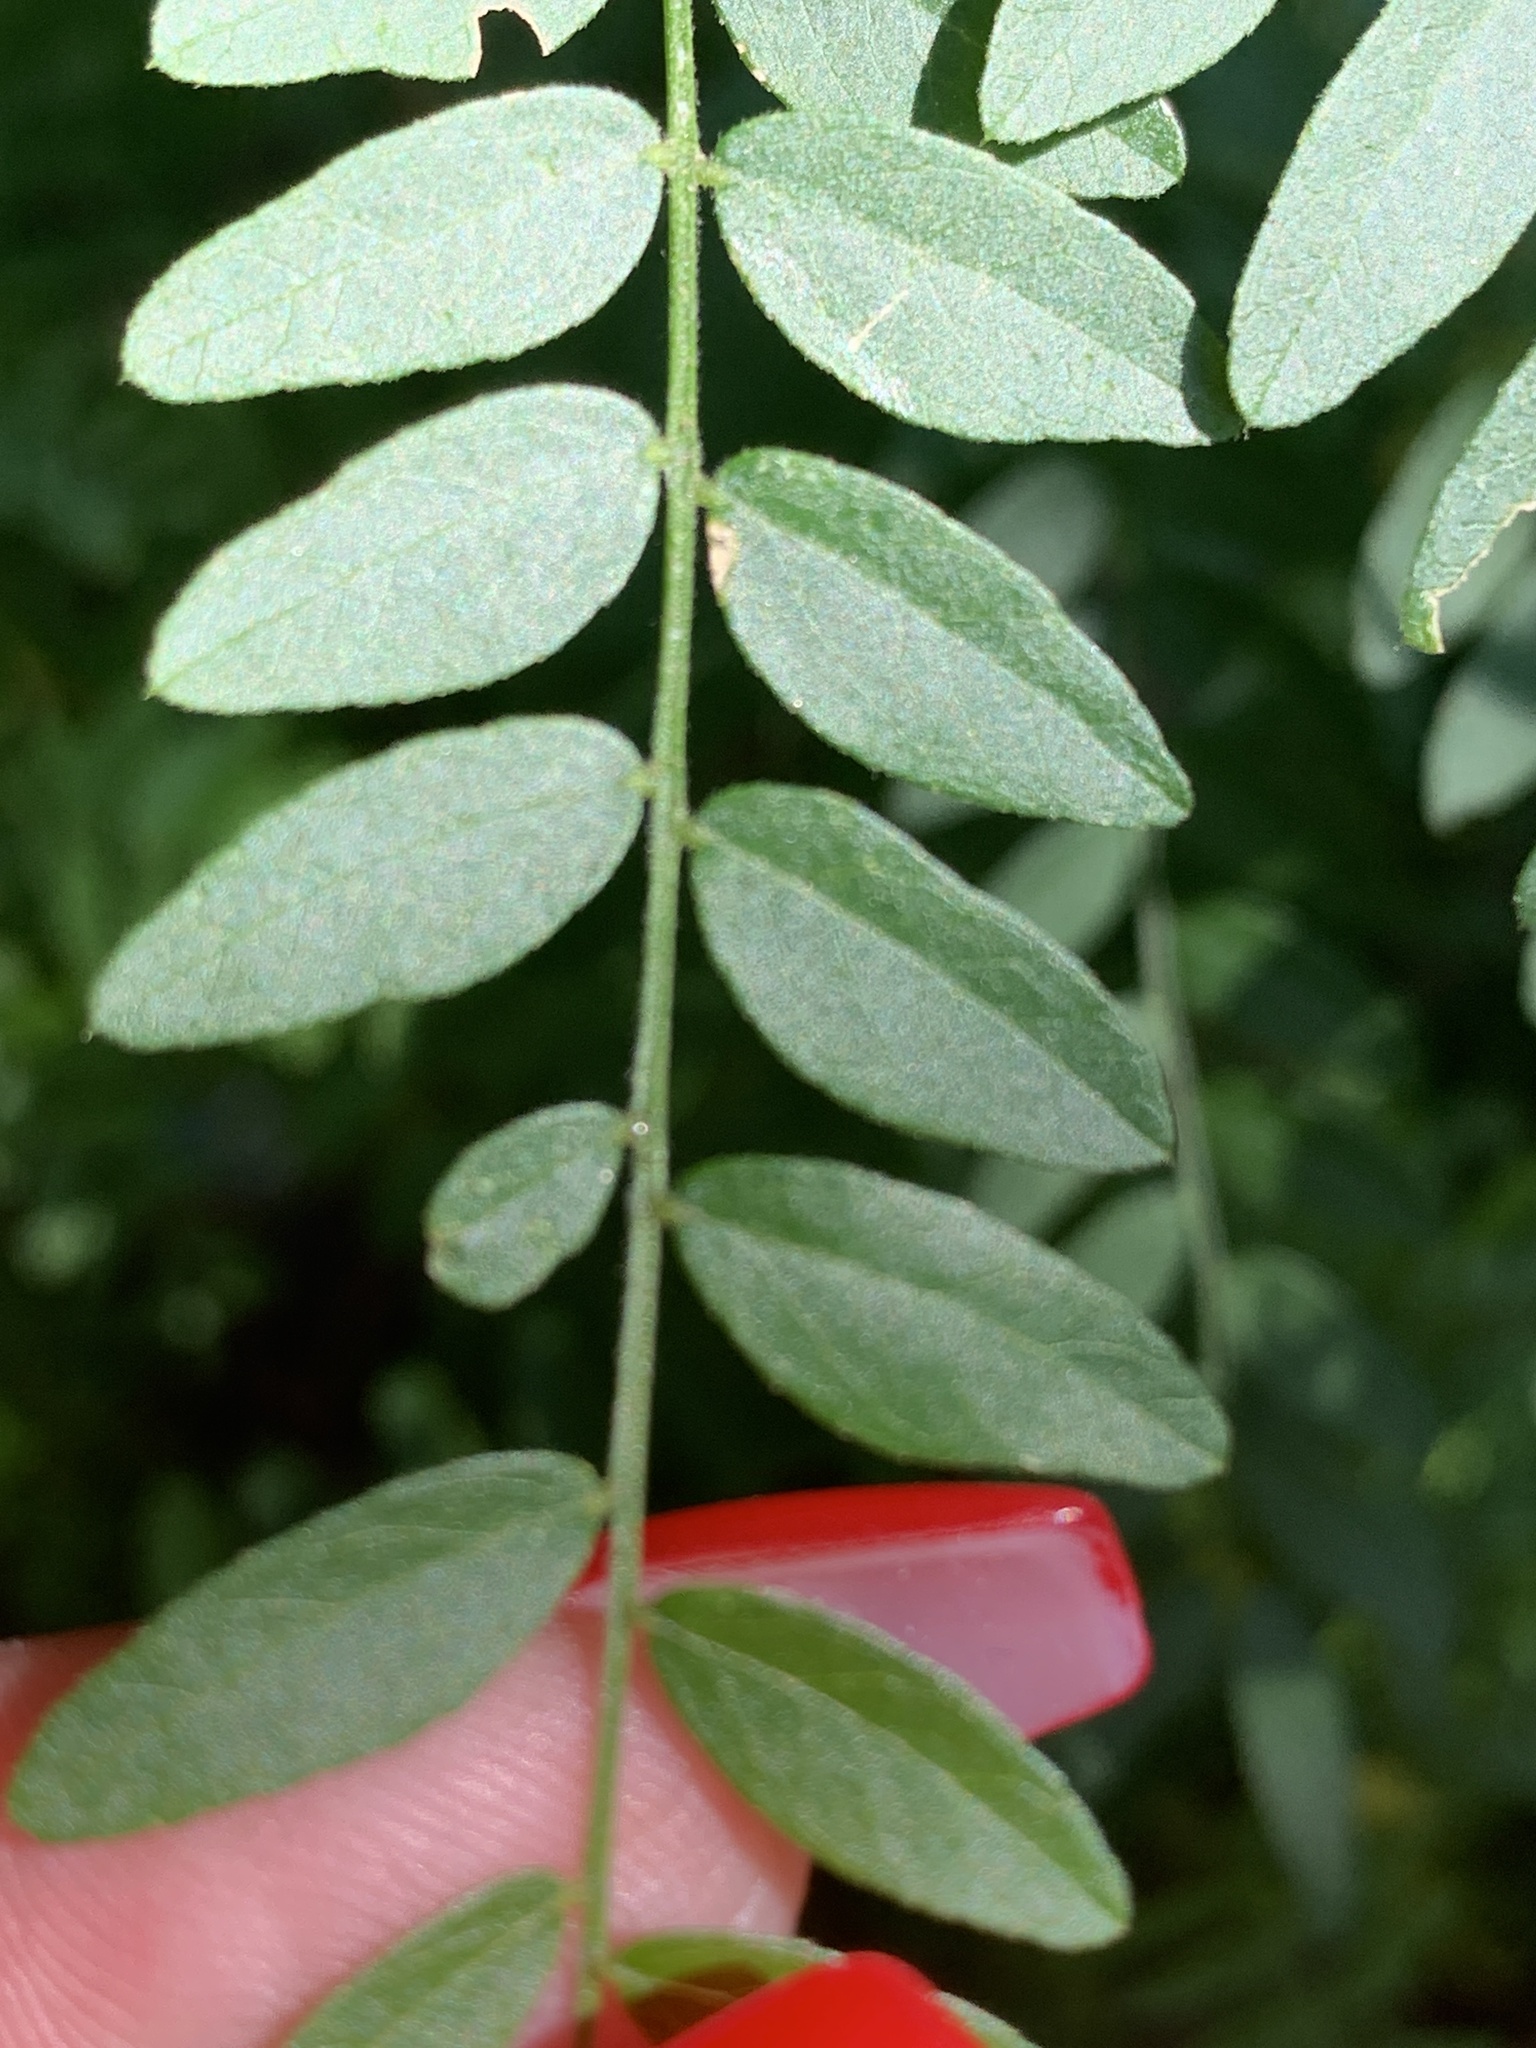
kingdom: Plantae
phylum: Tracheophyta
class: Magnoliopsida
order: Fabales
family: Fabaceae
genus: Gleditsia
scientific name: Gleditsia triacanthos
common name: Common honeylocust
